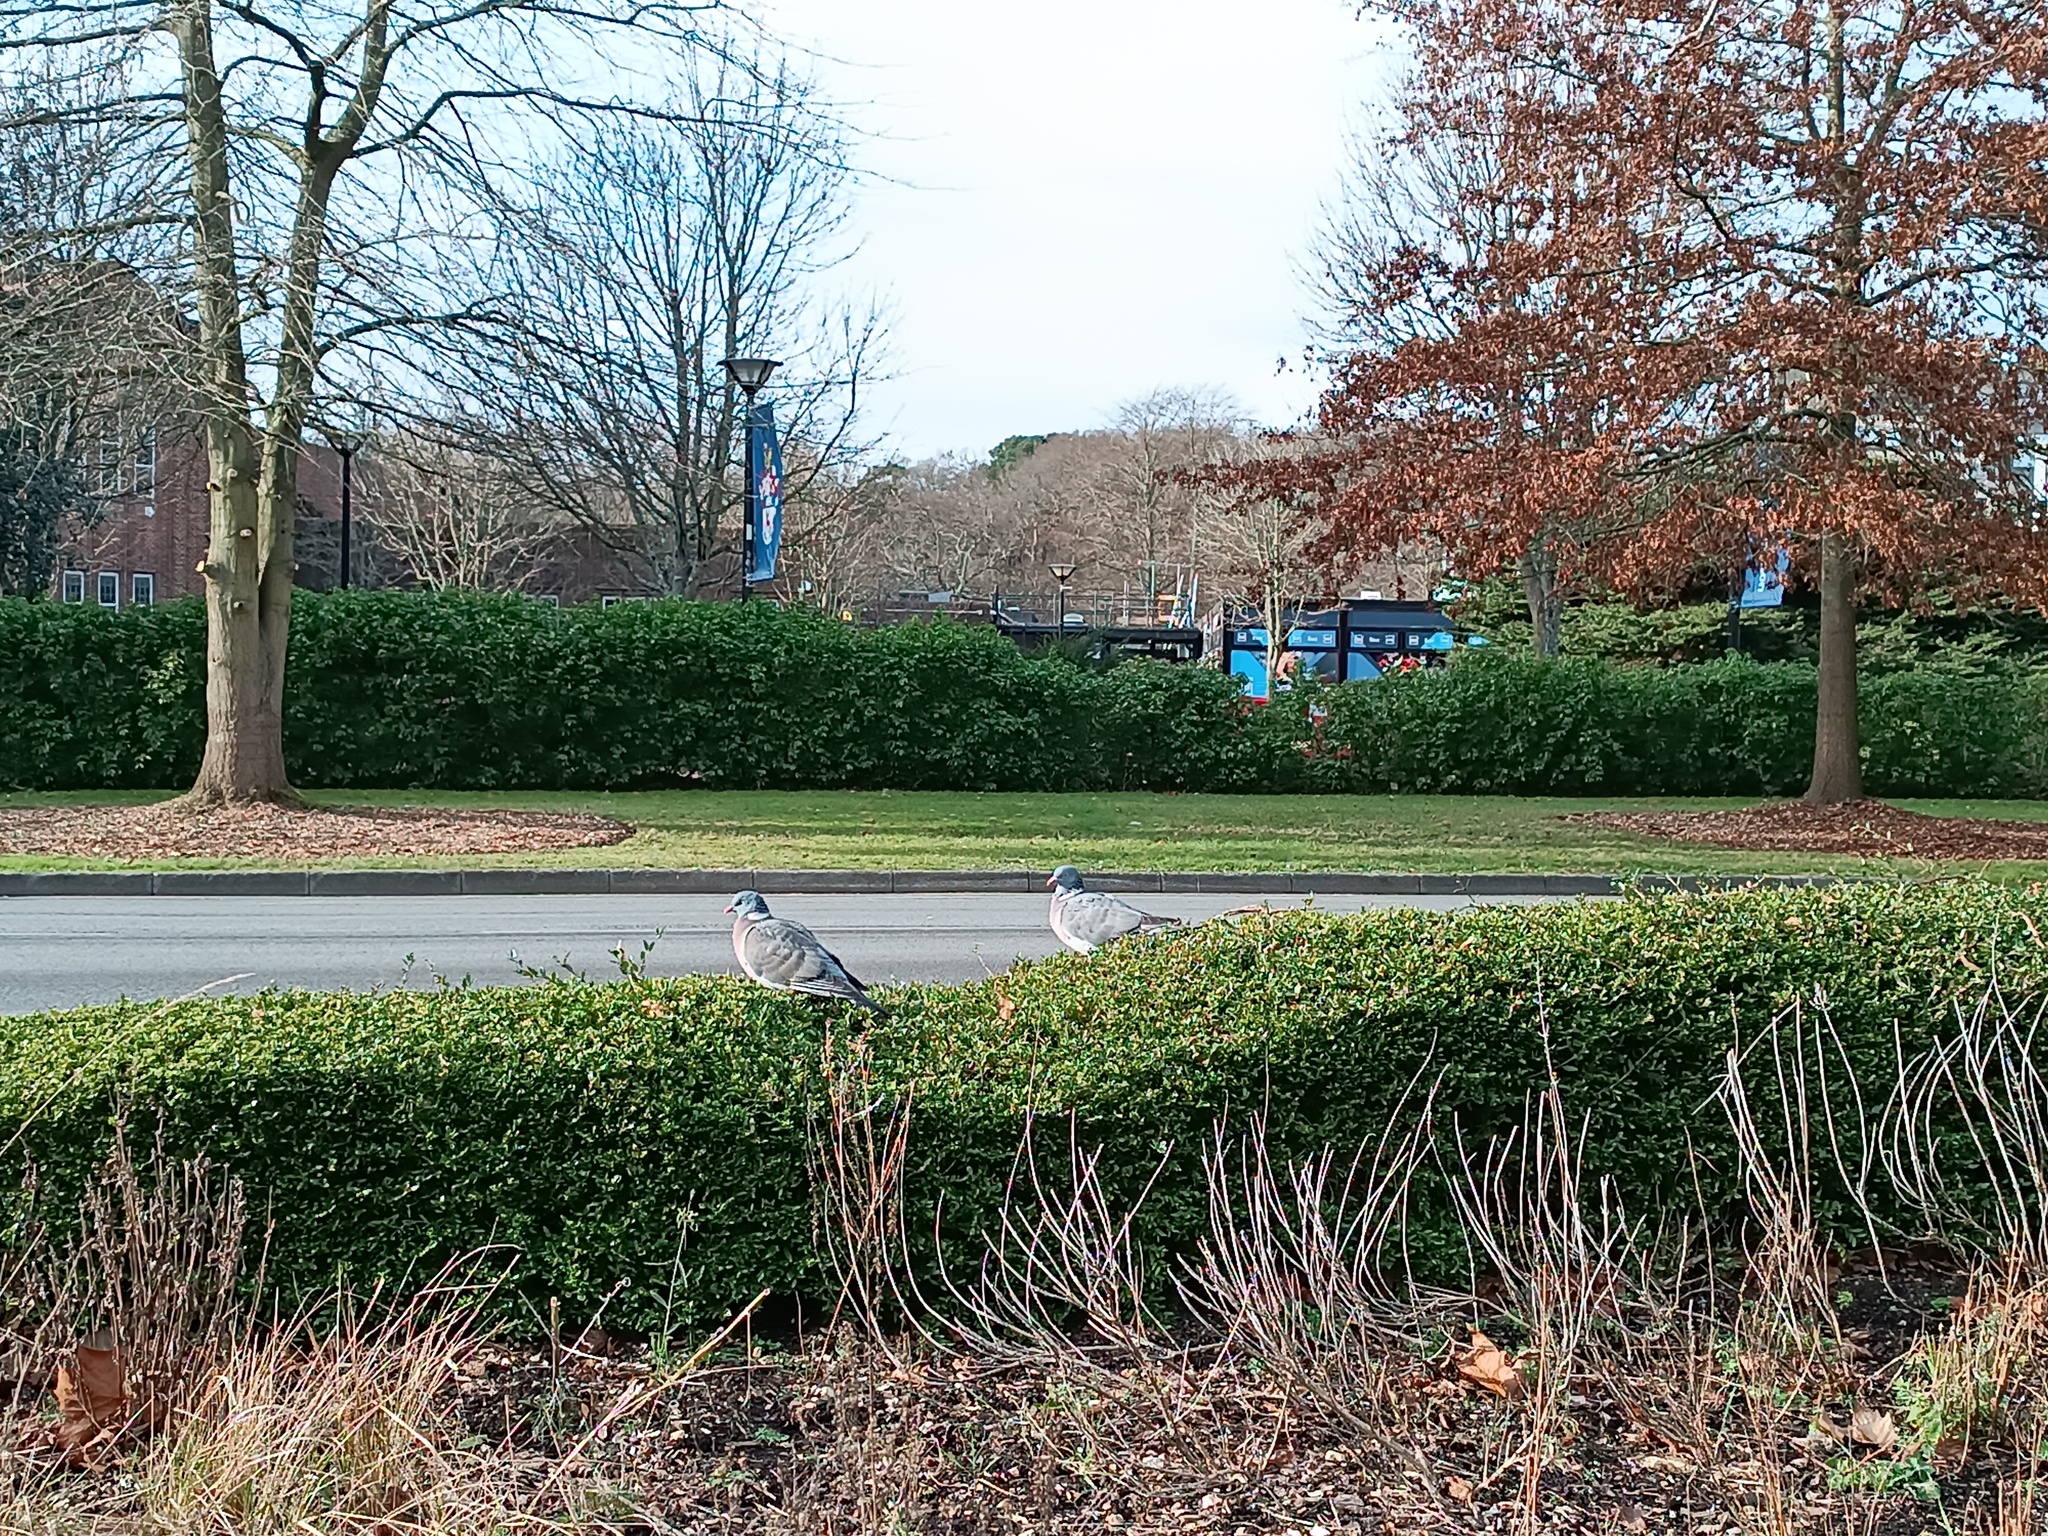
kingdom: Animalia
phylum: Chordata
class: Aves
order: Columbiformes
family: Columbidae
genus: Columba
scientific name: Columba palumbus
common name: Common wood pigeon
